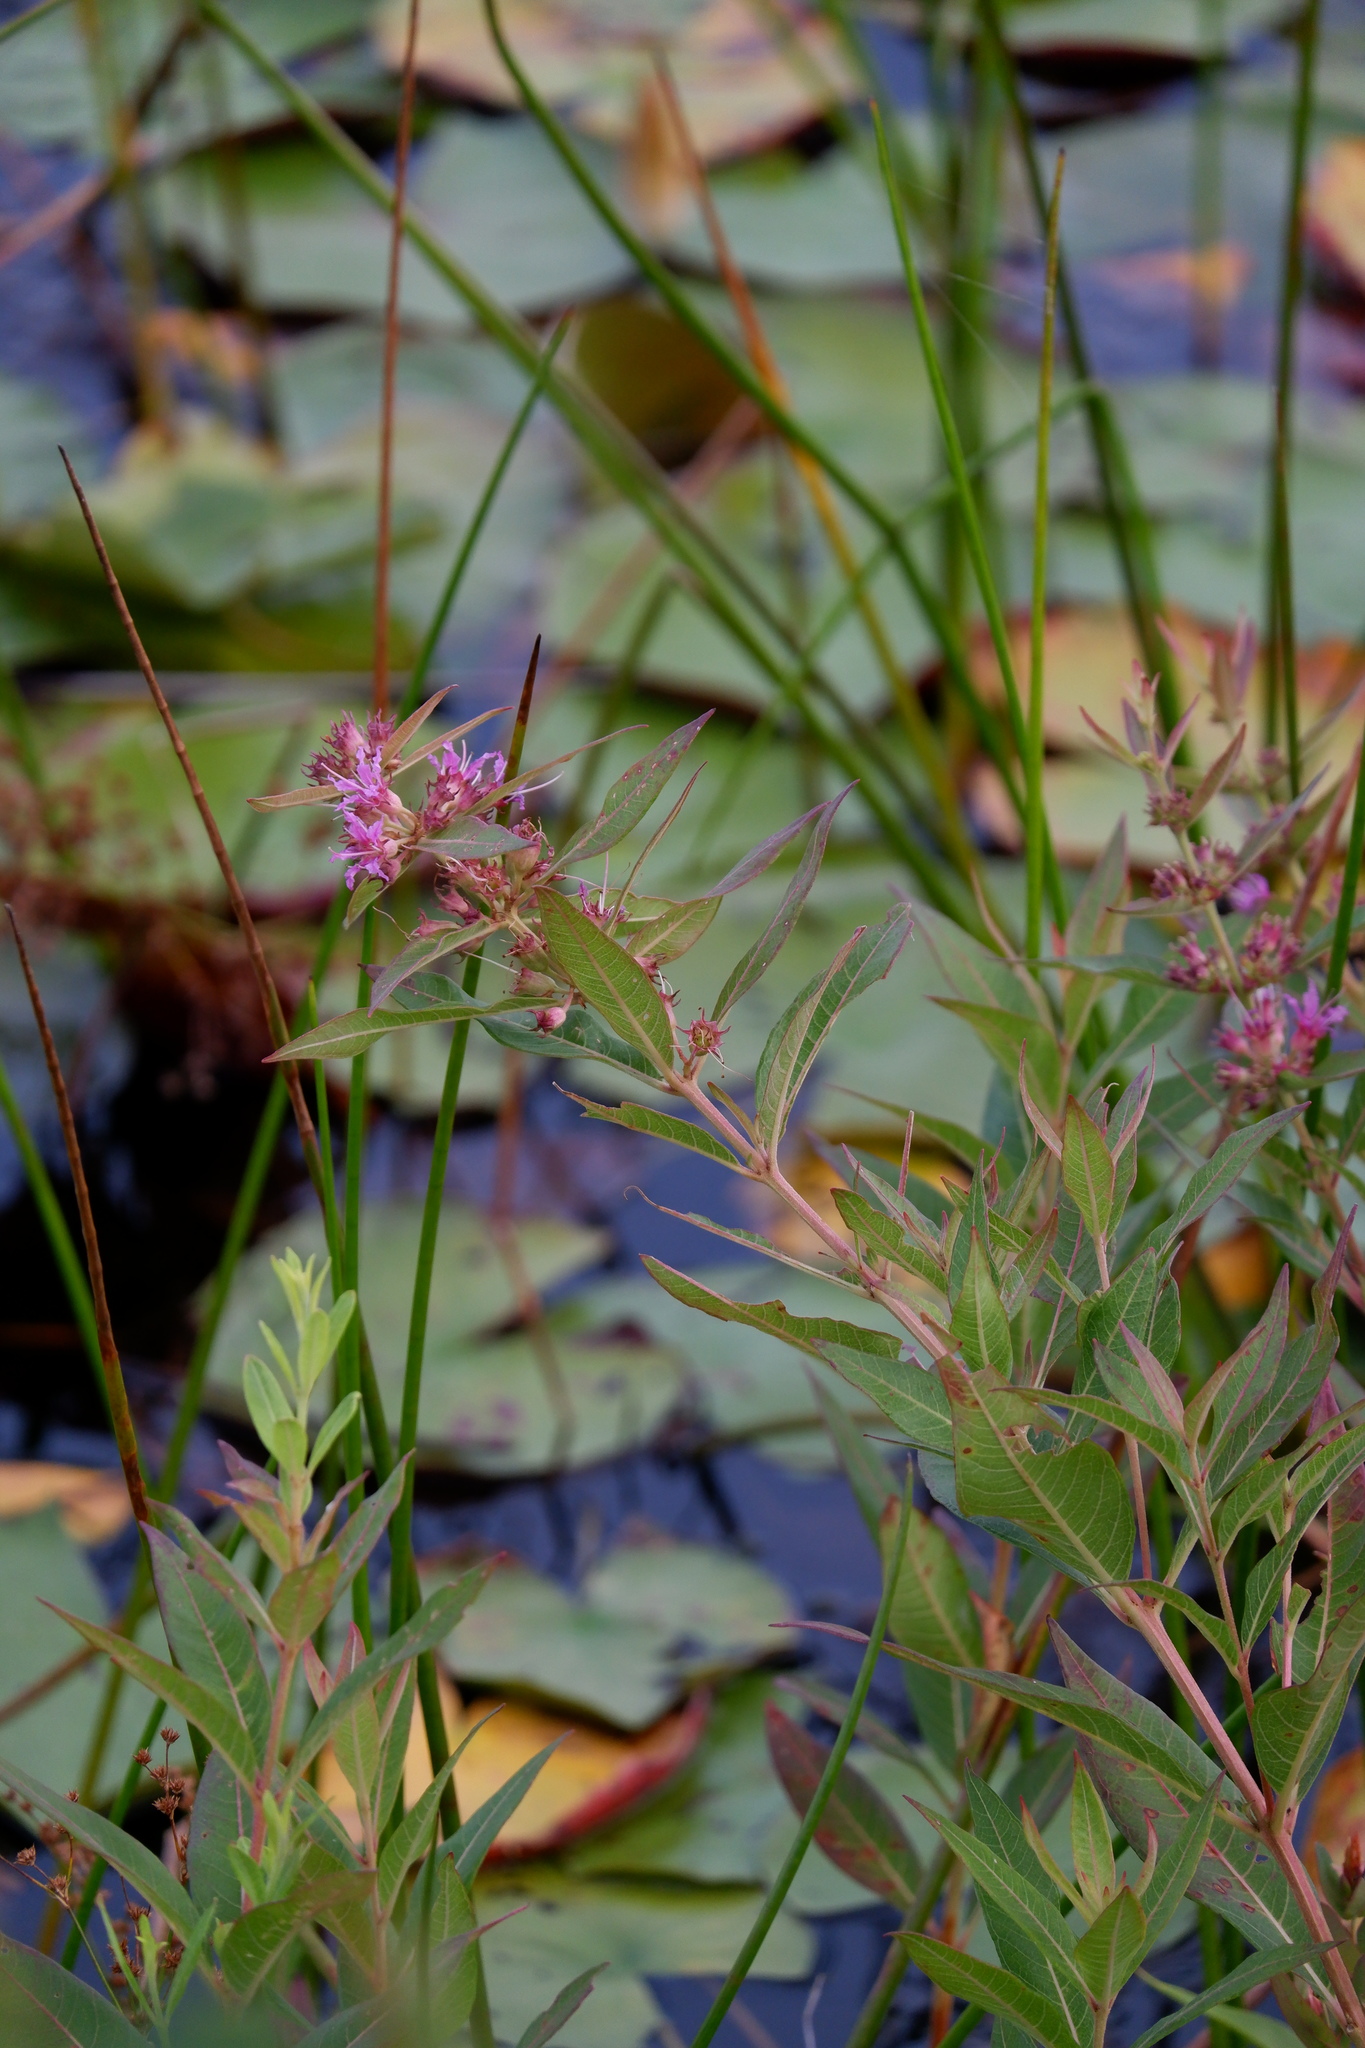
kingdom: Plantae
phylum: Tracheophyta
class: Magnoliopsida
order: Myrtales
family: Lythraceae
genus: Decodon
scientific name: Decodon verticillatus
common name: Hairy swamp loosestrife
